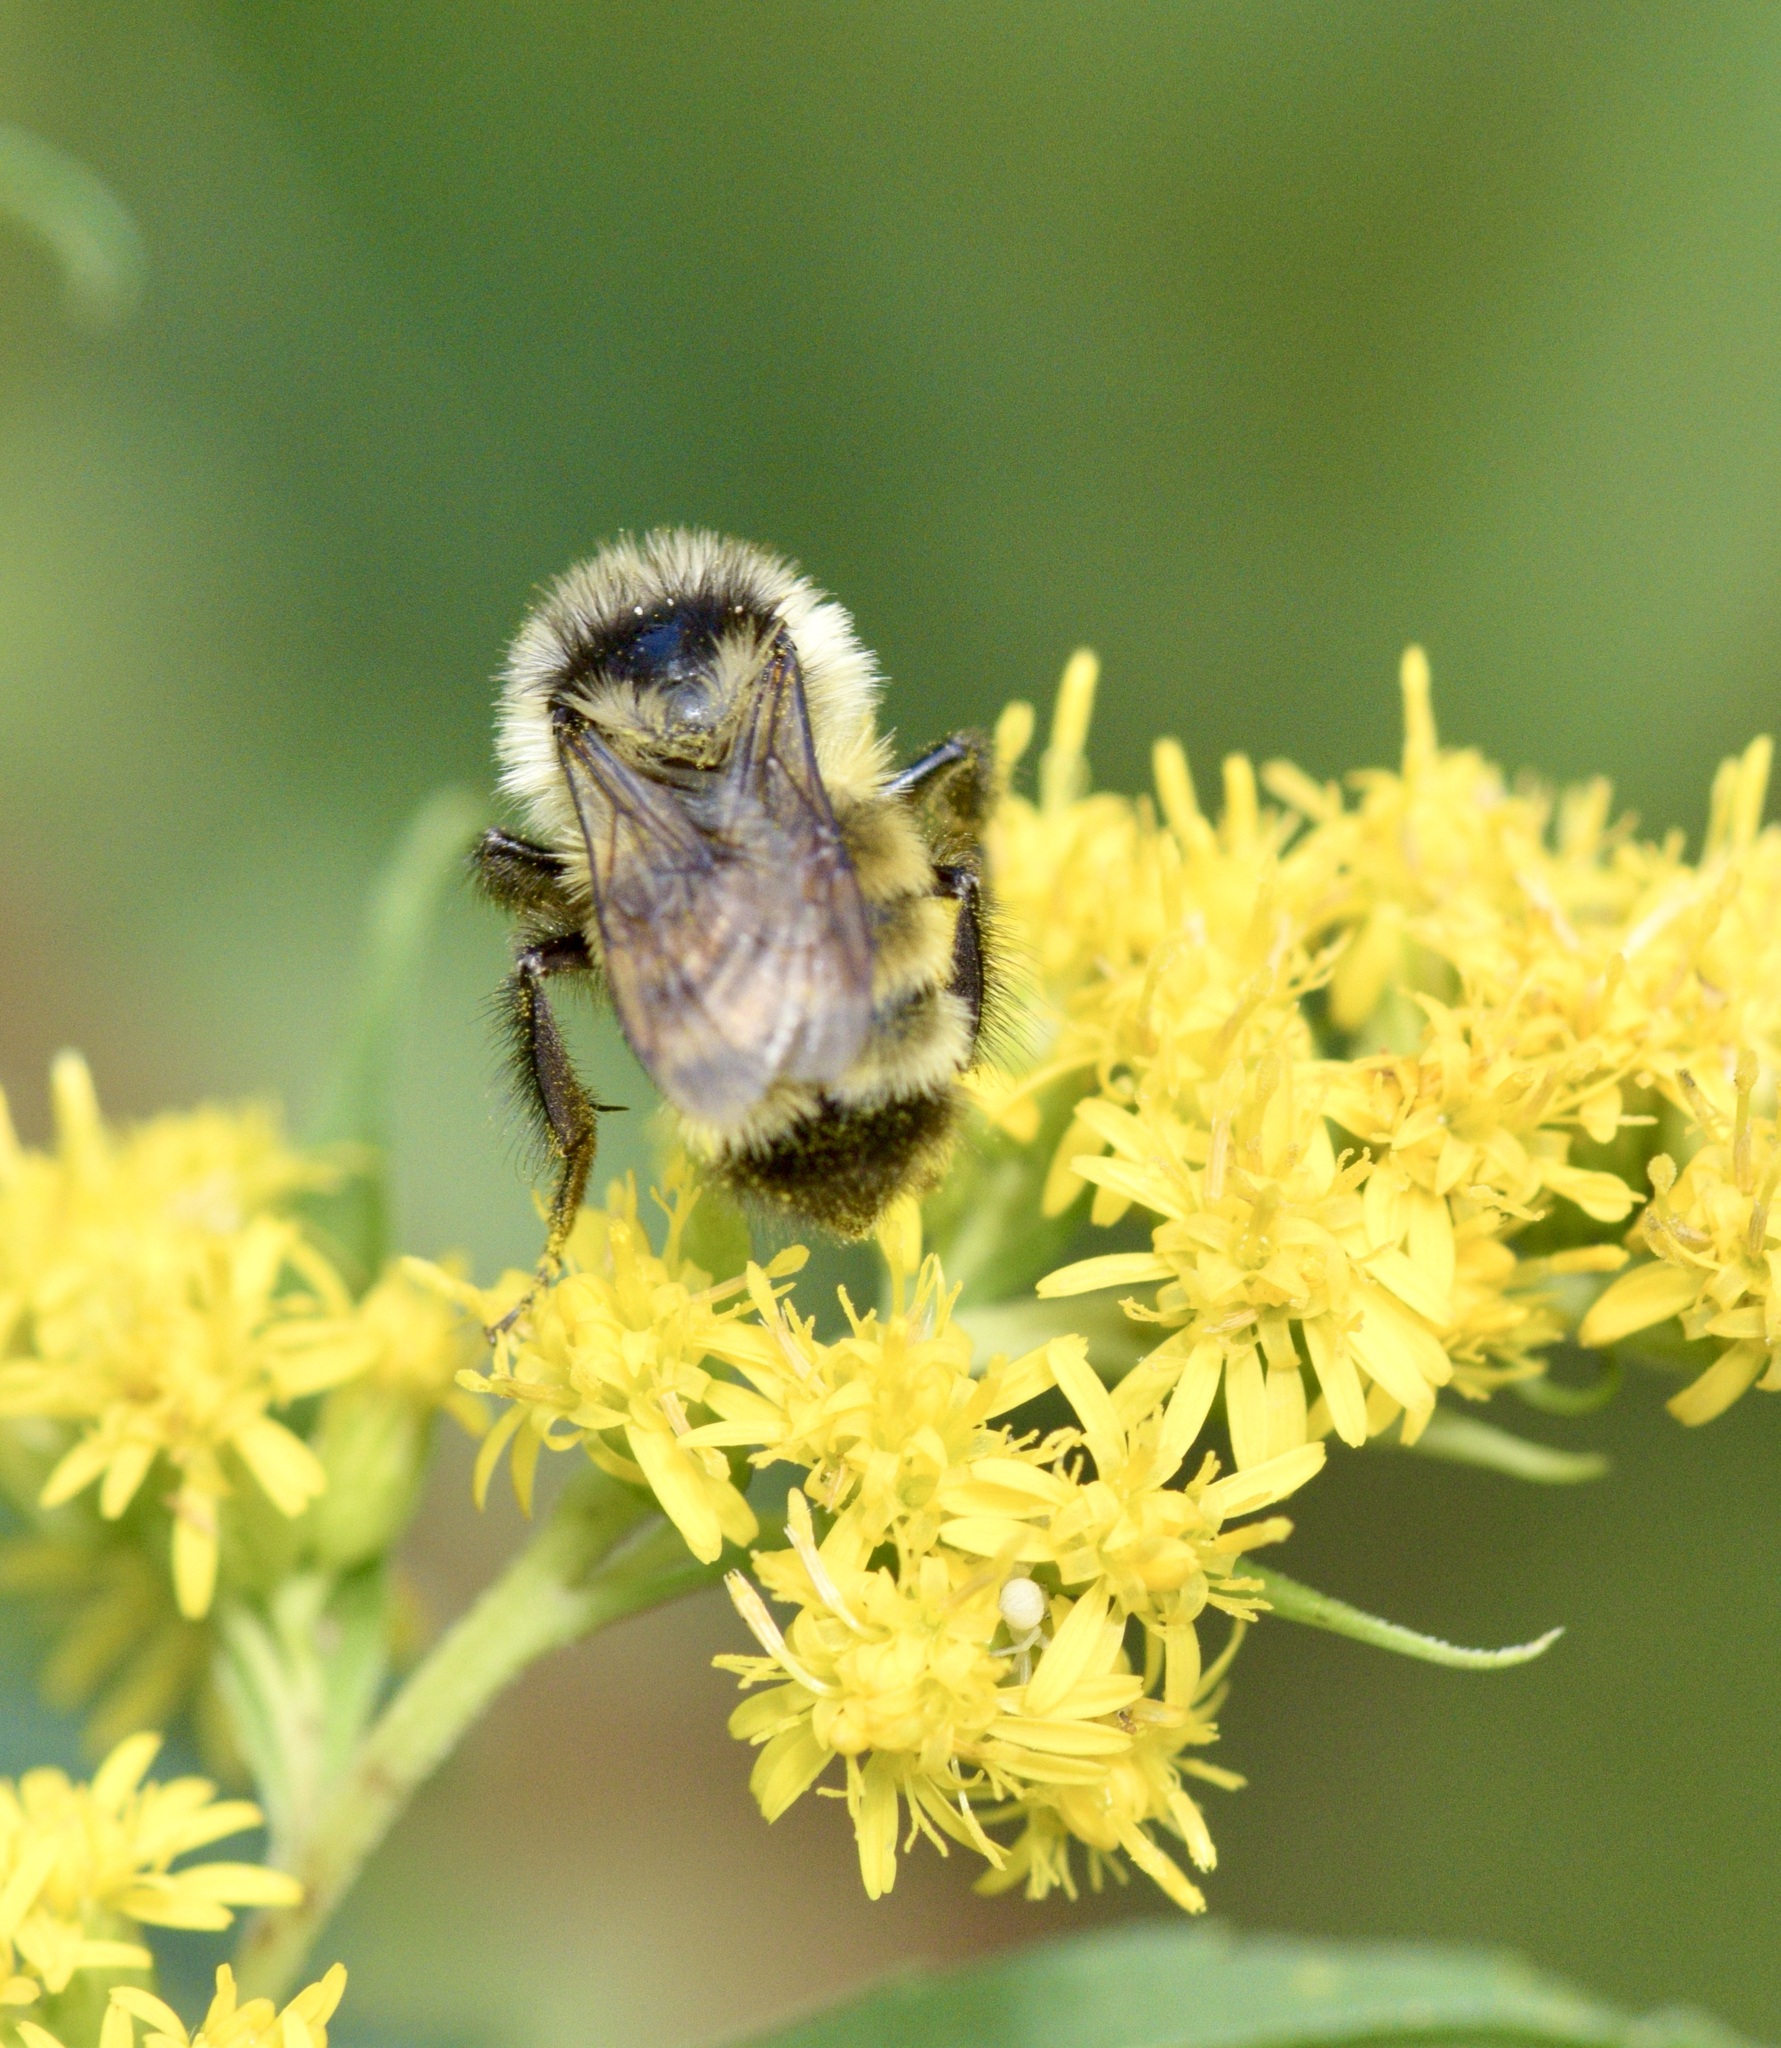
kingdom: Animalia
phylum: Arthropoda
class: Insecta
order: Hymenoptera
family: Apidae
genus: Bombus
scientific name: Bombus ternarius
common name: Tri-colored bumble bee
